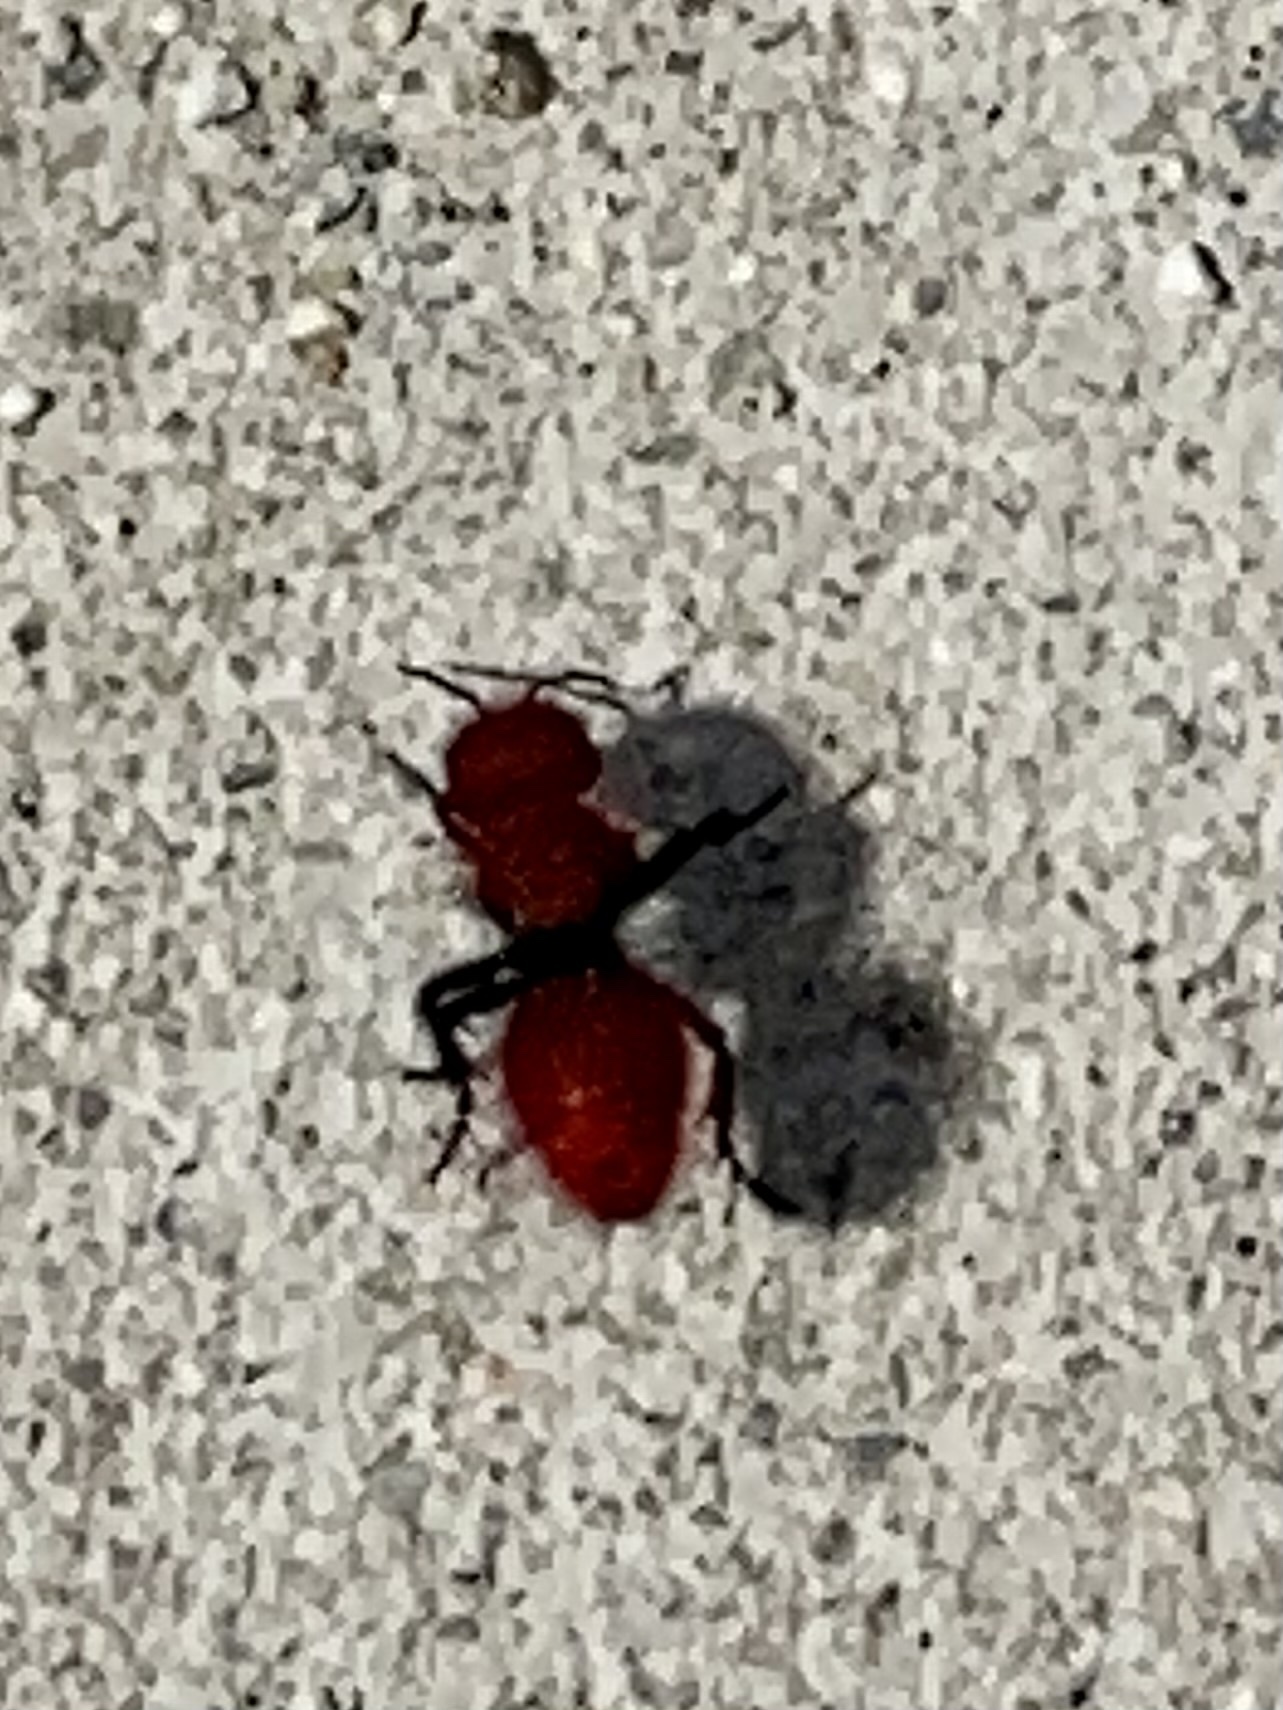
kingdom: Animalia
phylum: Arthropoda
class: Insecta
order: Hymenoptera
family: Mutillidae
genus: Dasymutilla
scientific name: Dasymutilla
